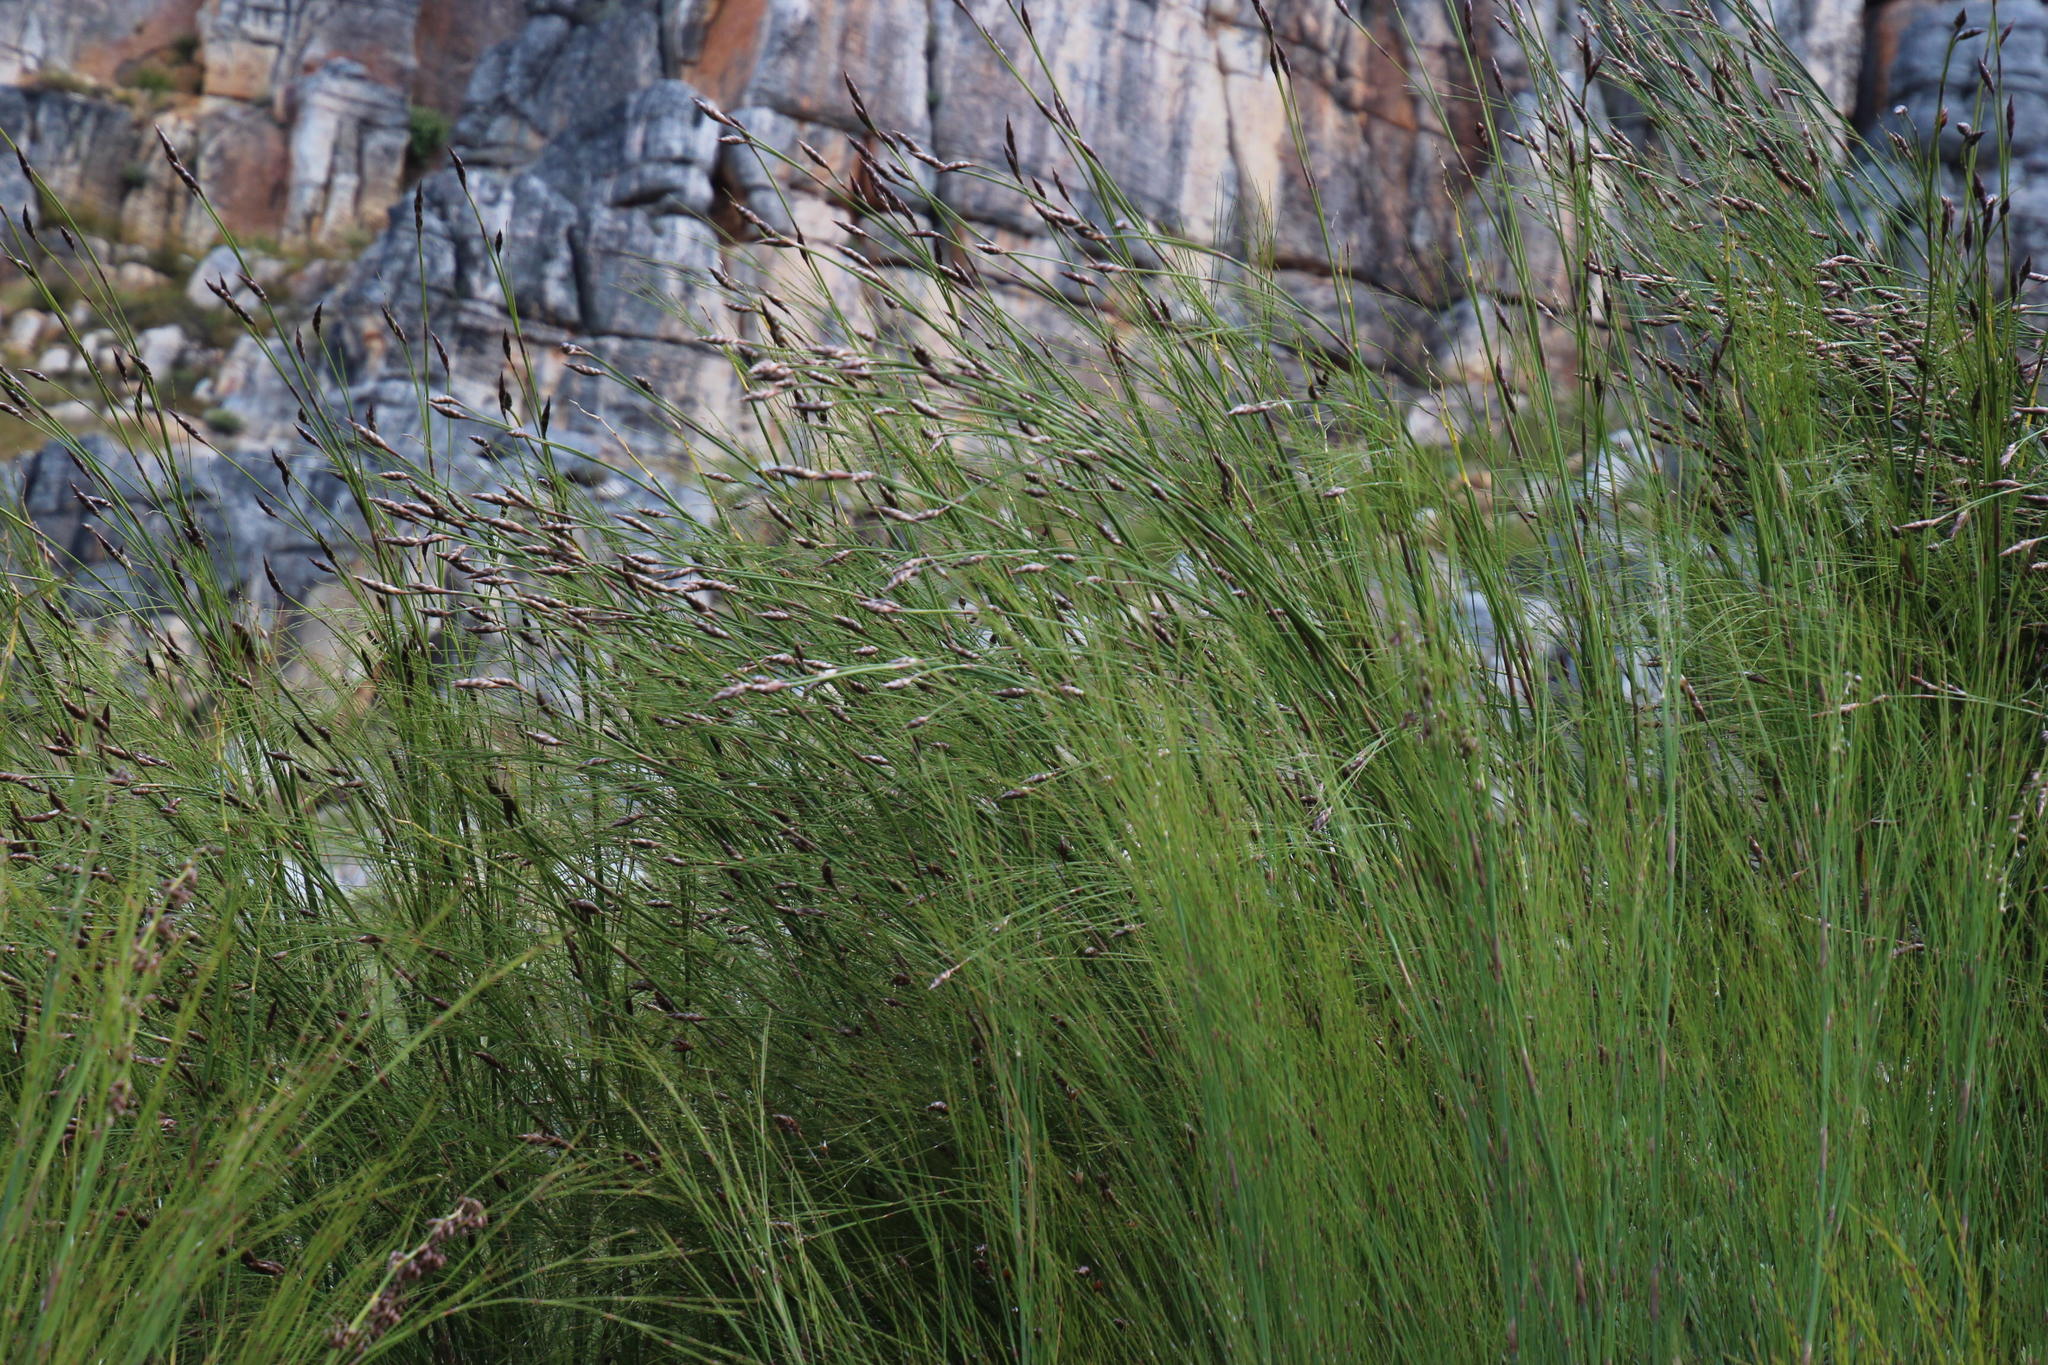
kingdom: Plantae
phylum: Tracheophyta
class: Liliopsida
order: Poales
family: Restionaceae
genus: Cannomois
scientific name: Cannomois robusta
